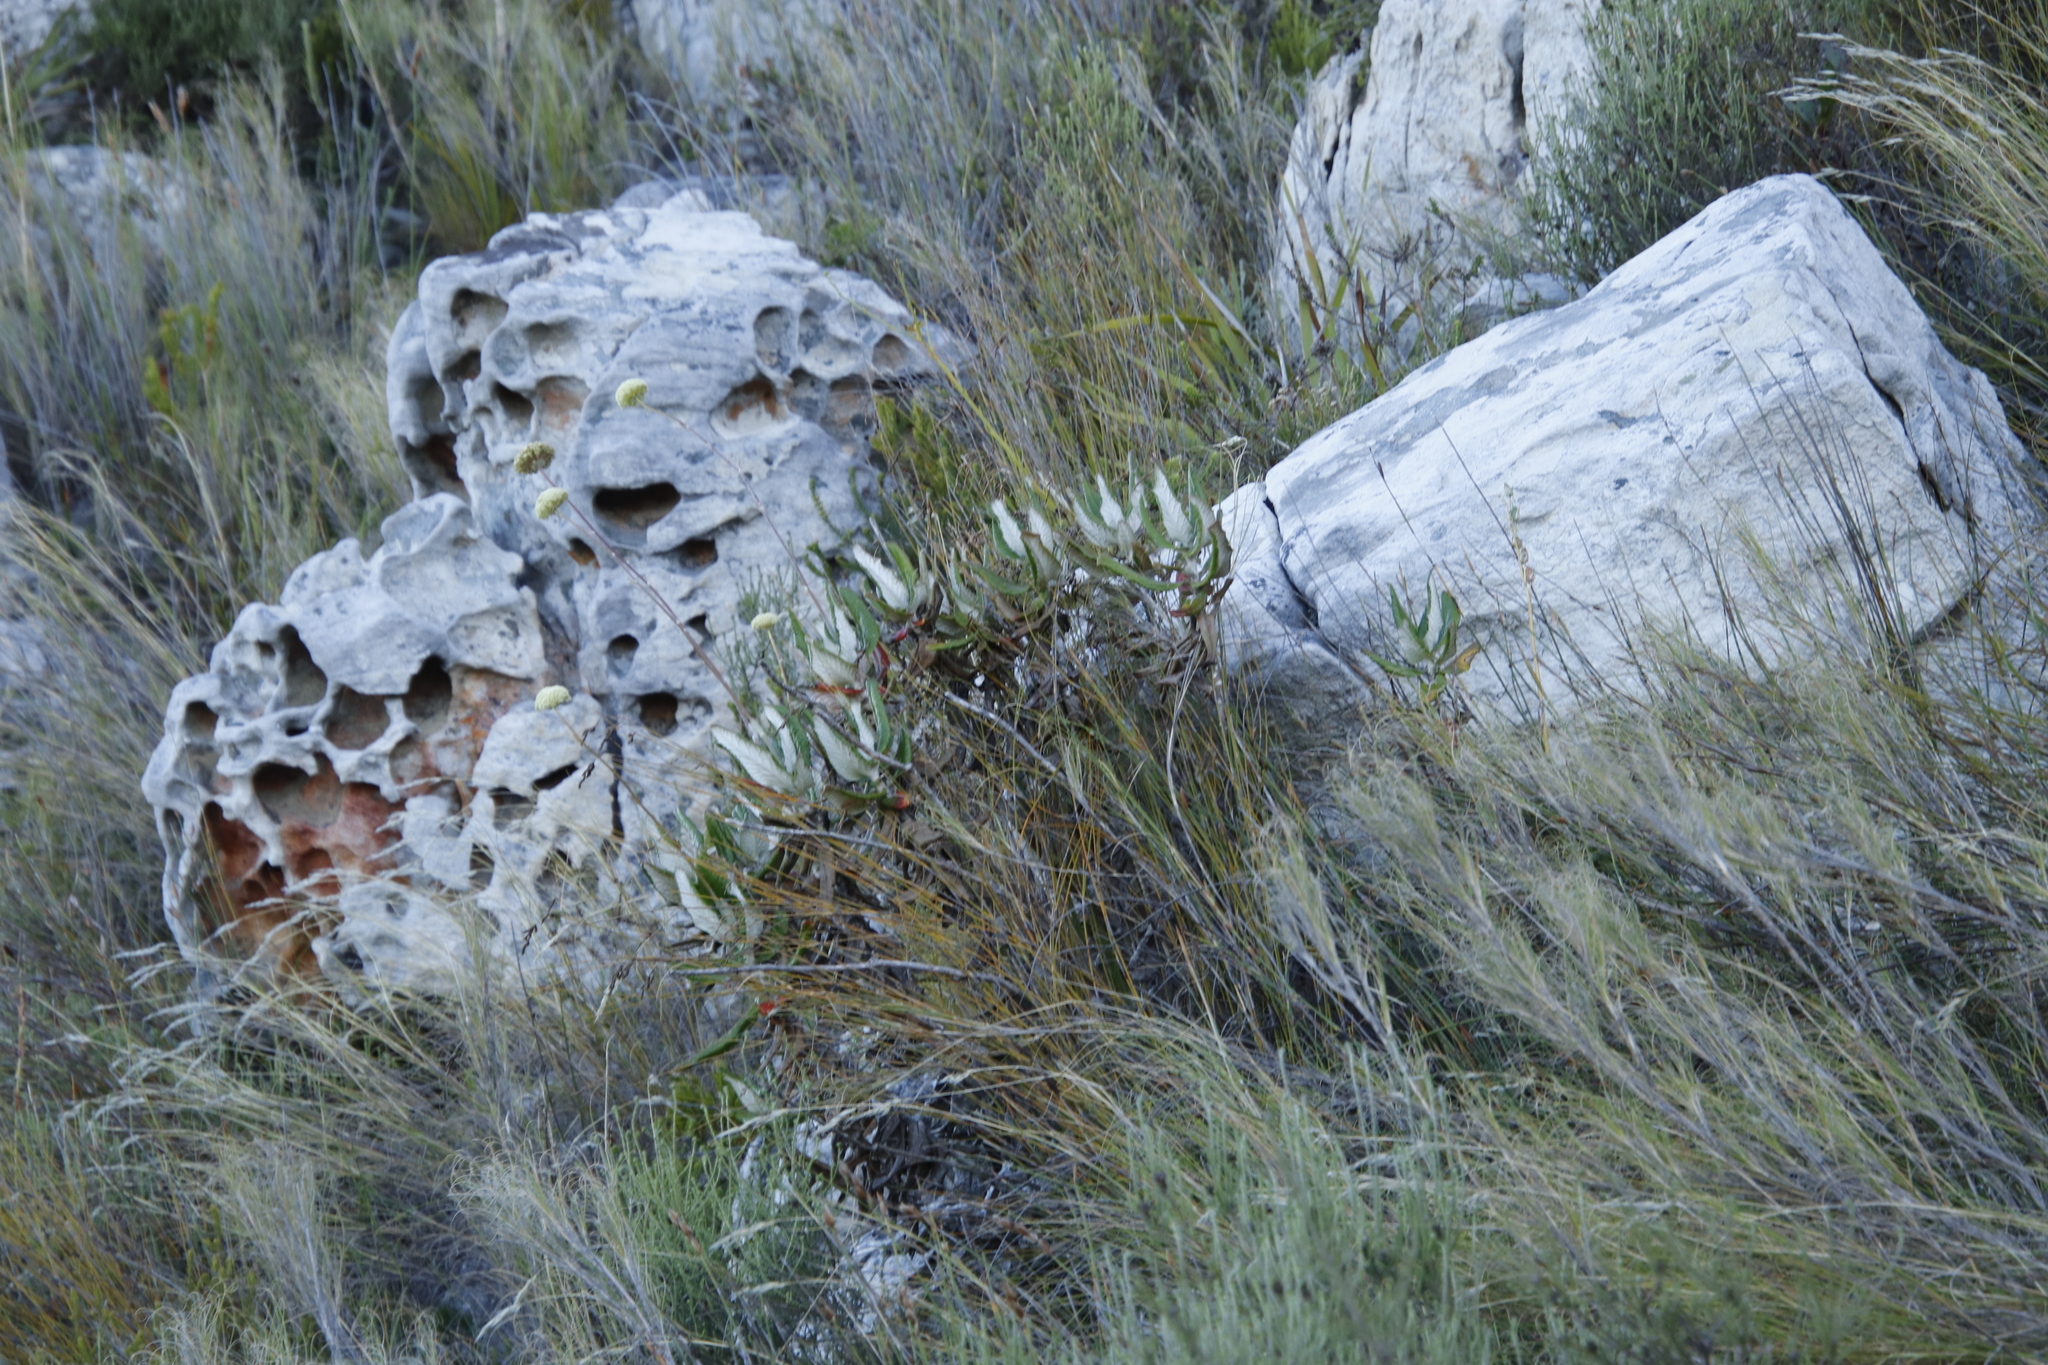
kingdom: Plantae
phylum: Tracheophyta
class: Magnoliopsida
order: Apiales
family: Apiaceae
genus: Hermas
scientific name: Hermas villosa
